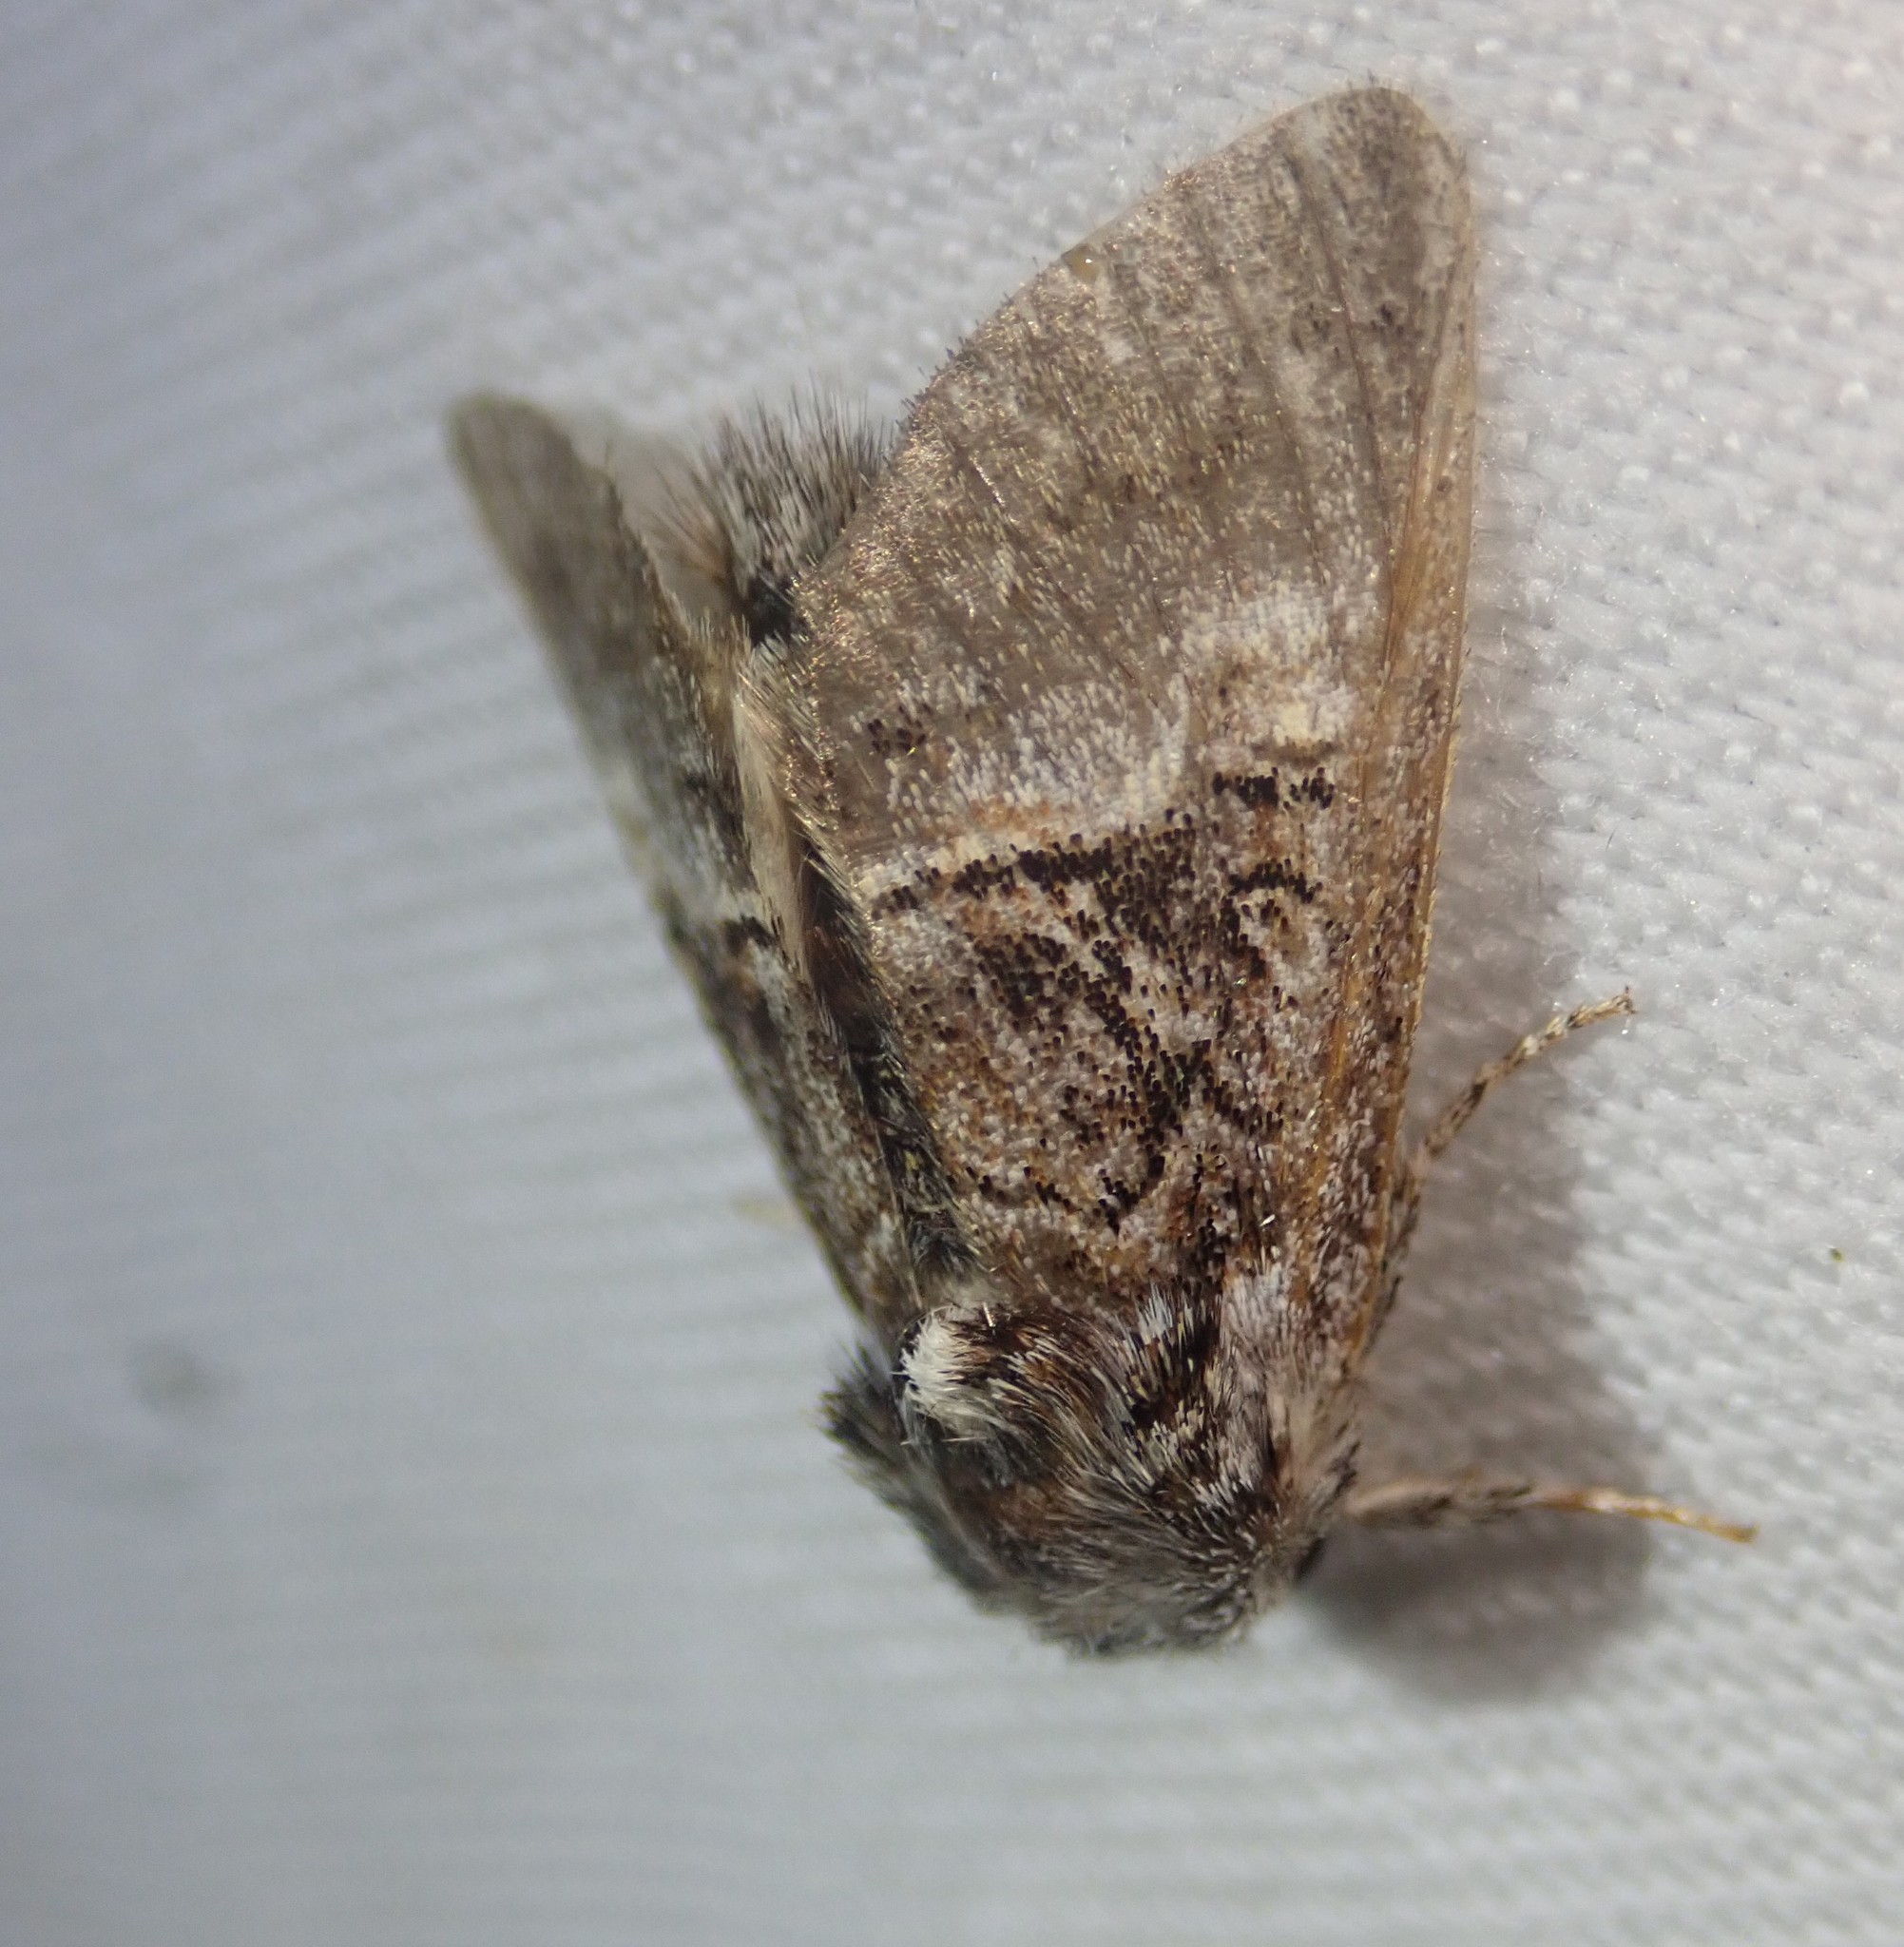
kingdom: Animalia
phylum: Arthropoda
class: Insecta
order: Lepidoptera
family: Noctuidae
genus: Colocasia
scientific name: Colocasia coryli
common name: Nut-tree tussock
